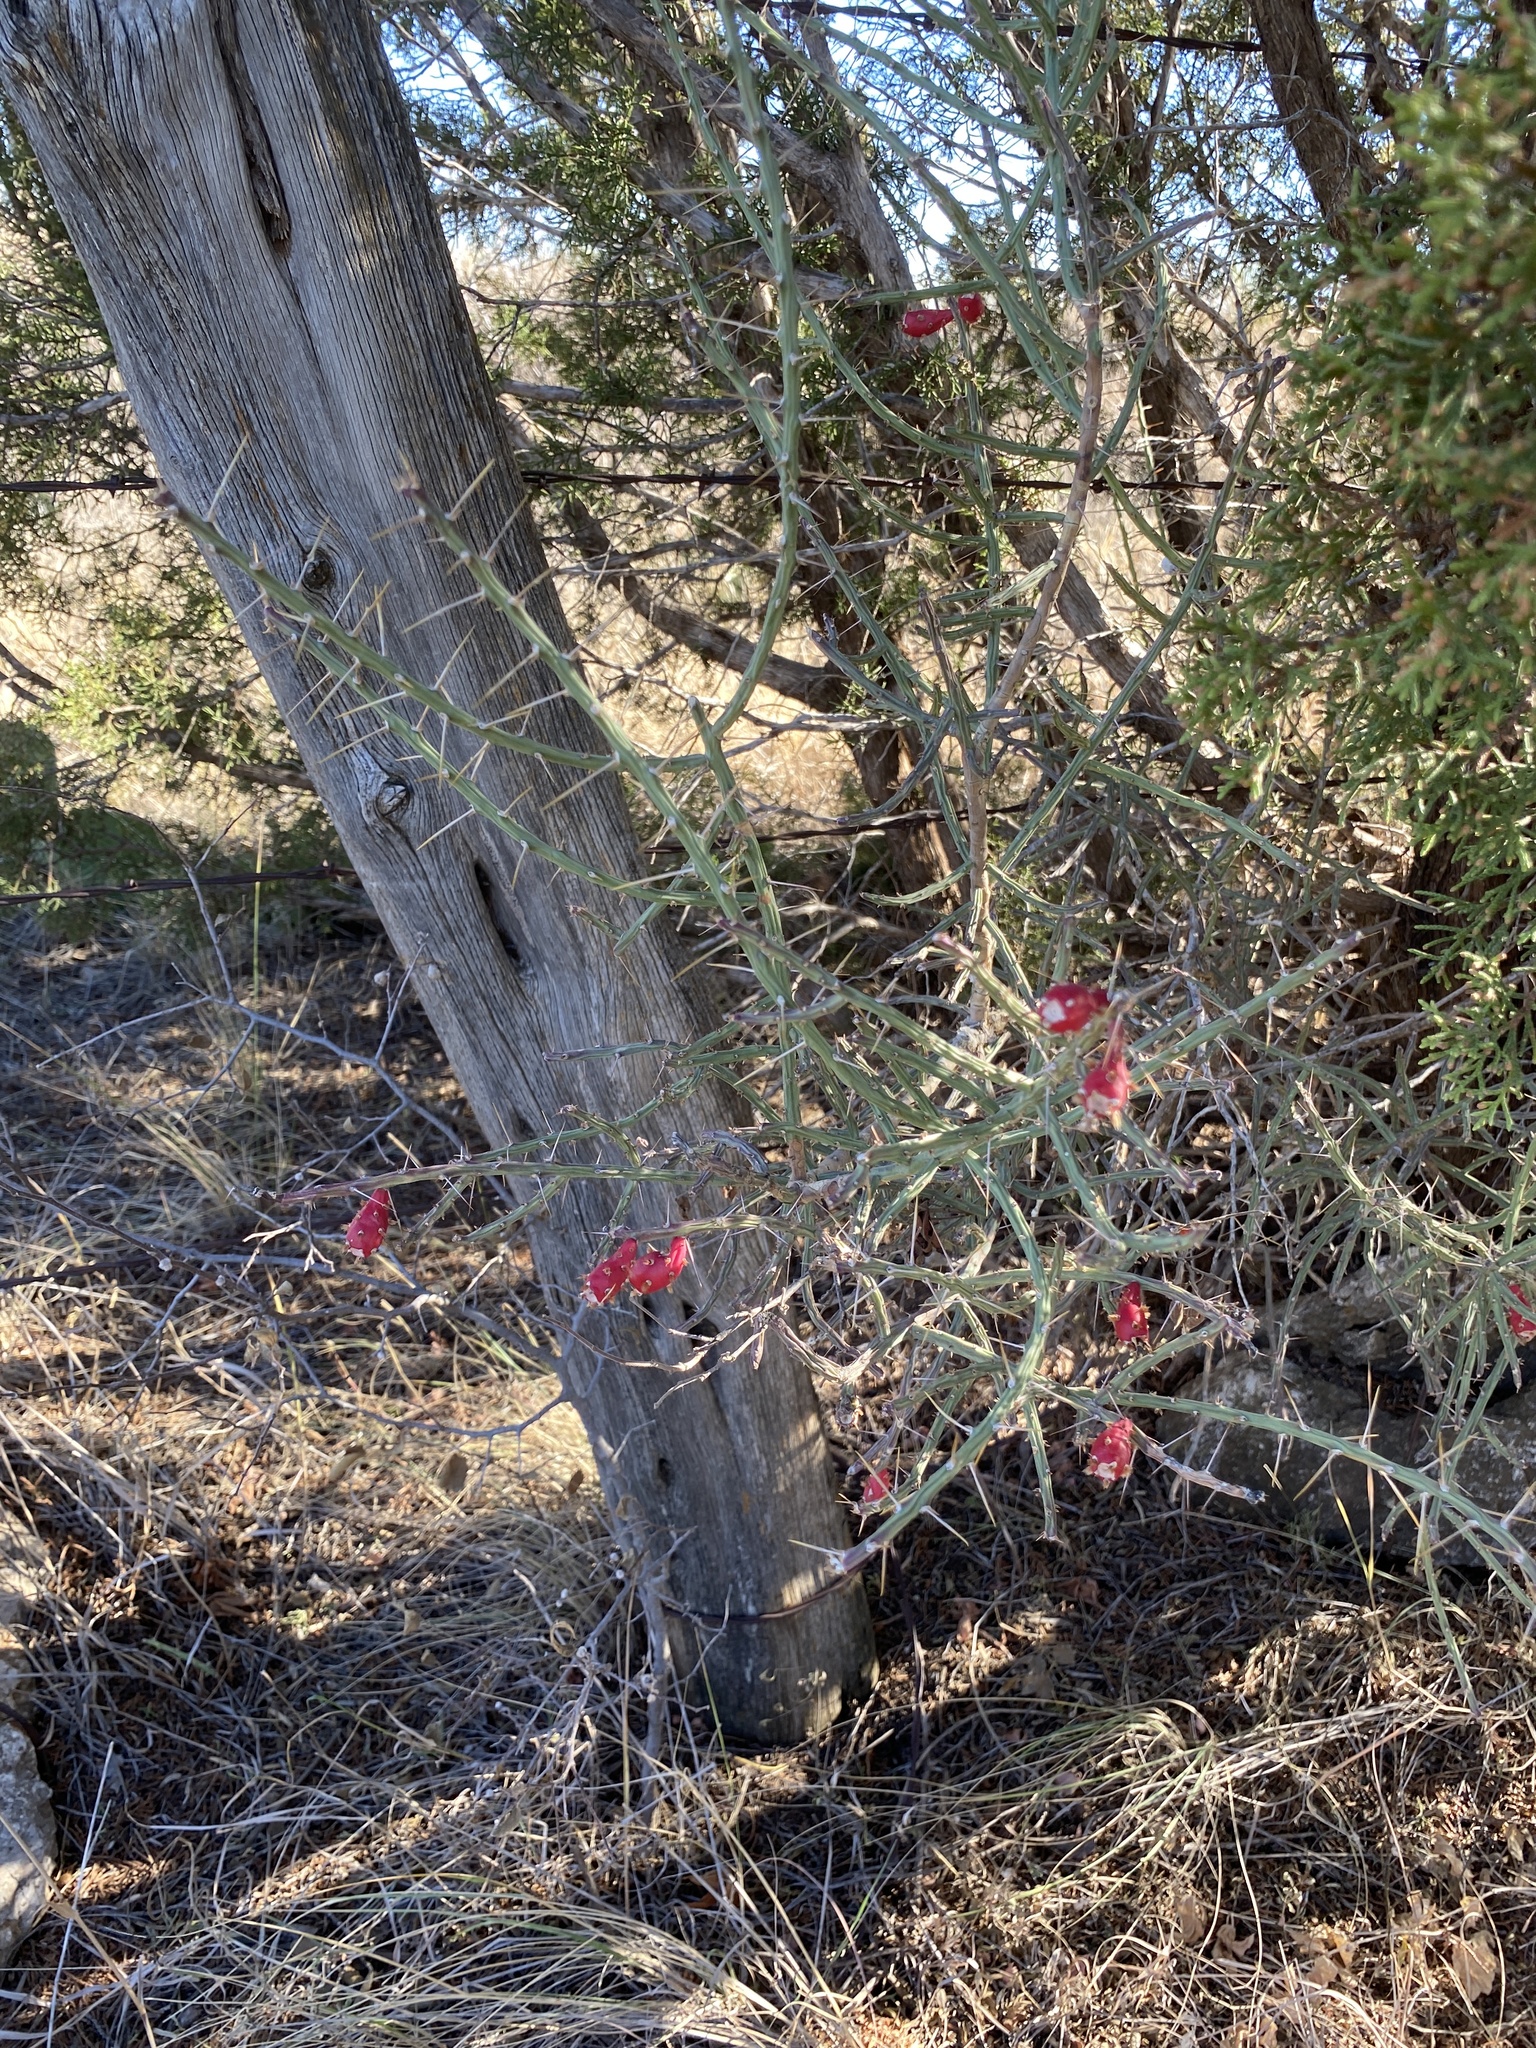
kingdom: Plantae
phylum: Tracheophyta
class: Magnoliopsida
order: Caryophyllales
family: Cactaceae
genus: Cylindropuntia
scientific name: Cylindropuntia leptocaulis
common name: Christmas cactus
